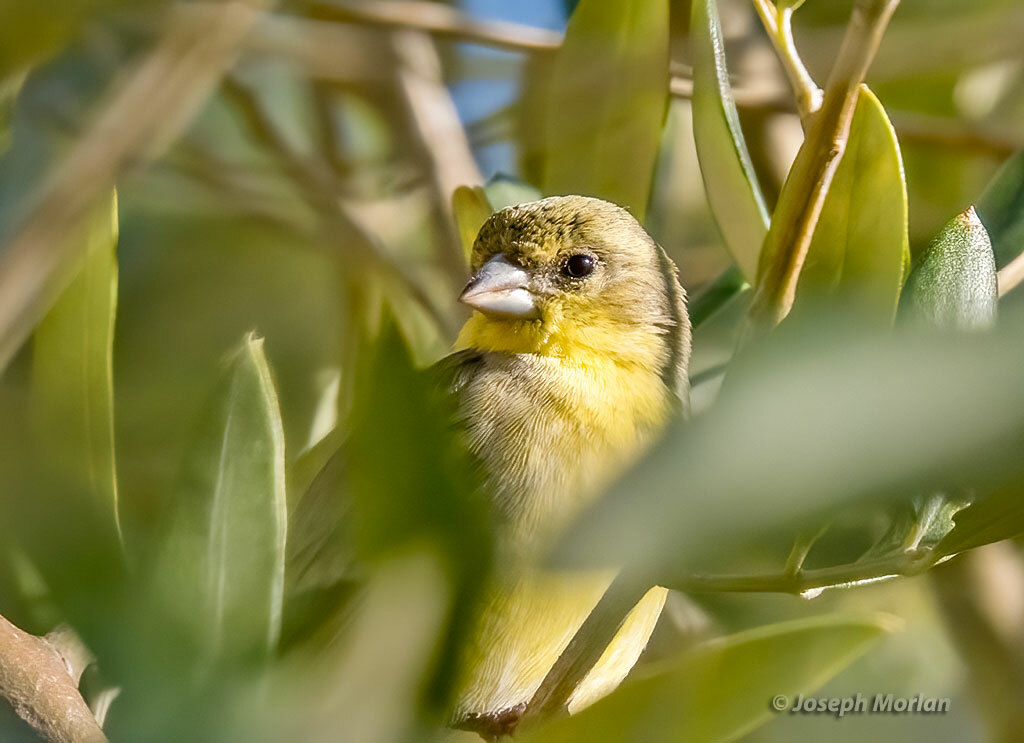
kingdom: Animalia
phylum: Chordata
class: Aves
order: Passeriformes
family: Fringillidae
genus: Spinus
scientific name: Spinus psaltria
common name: Lesser goldfinch
